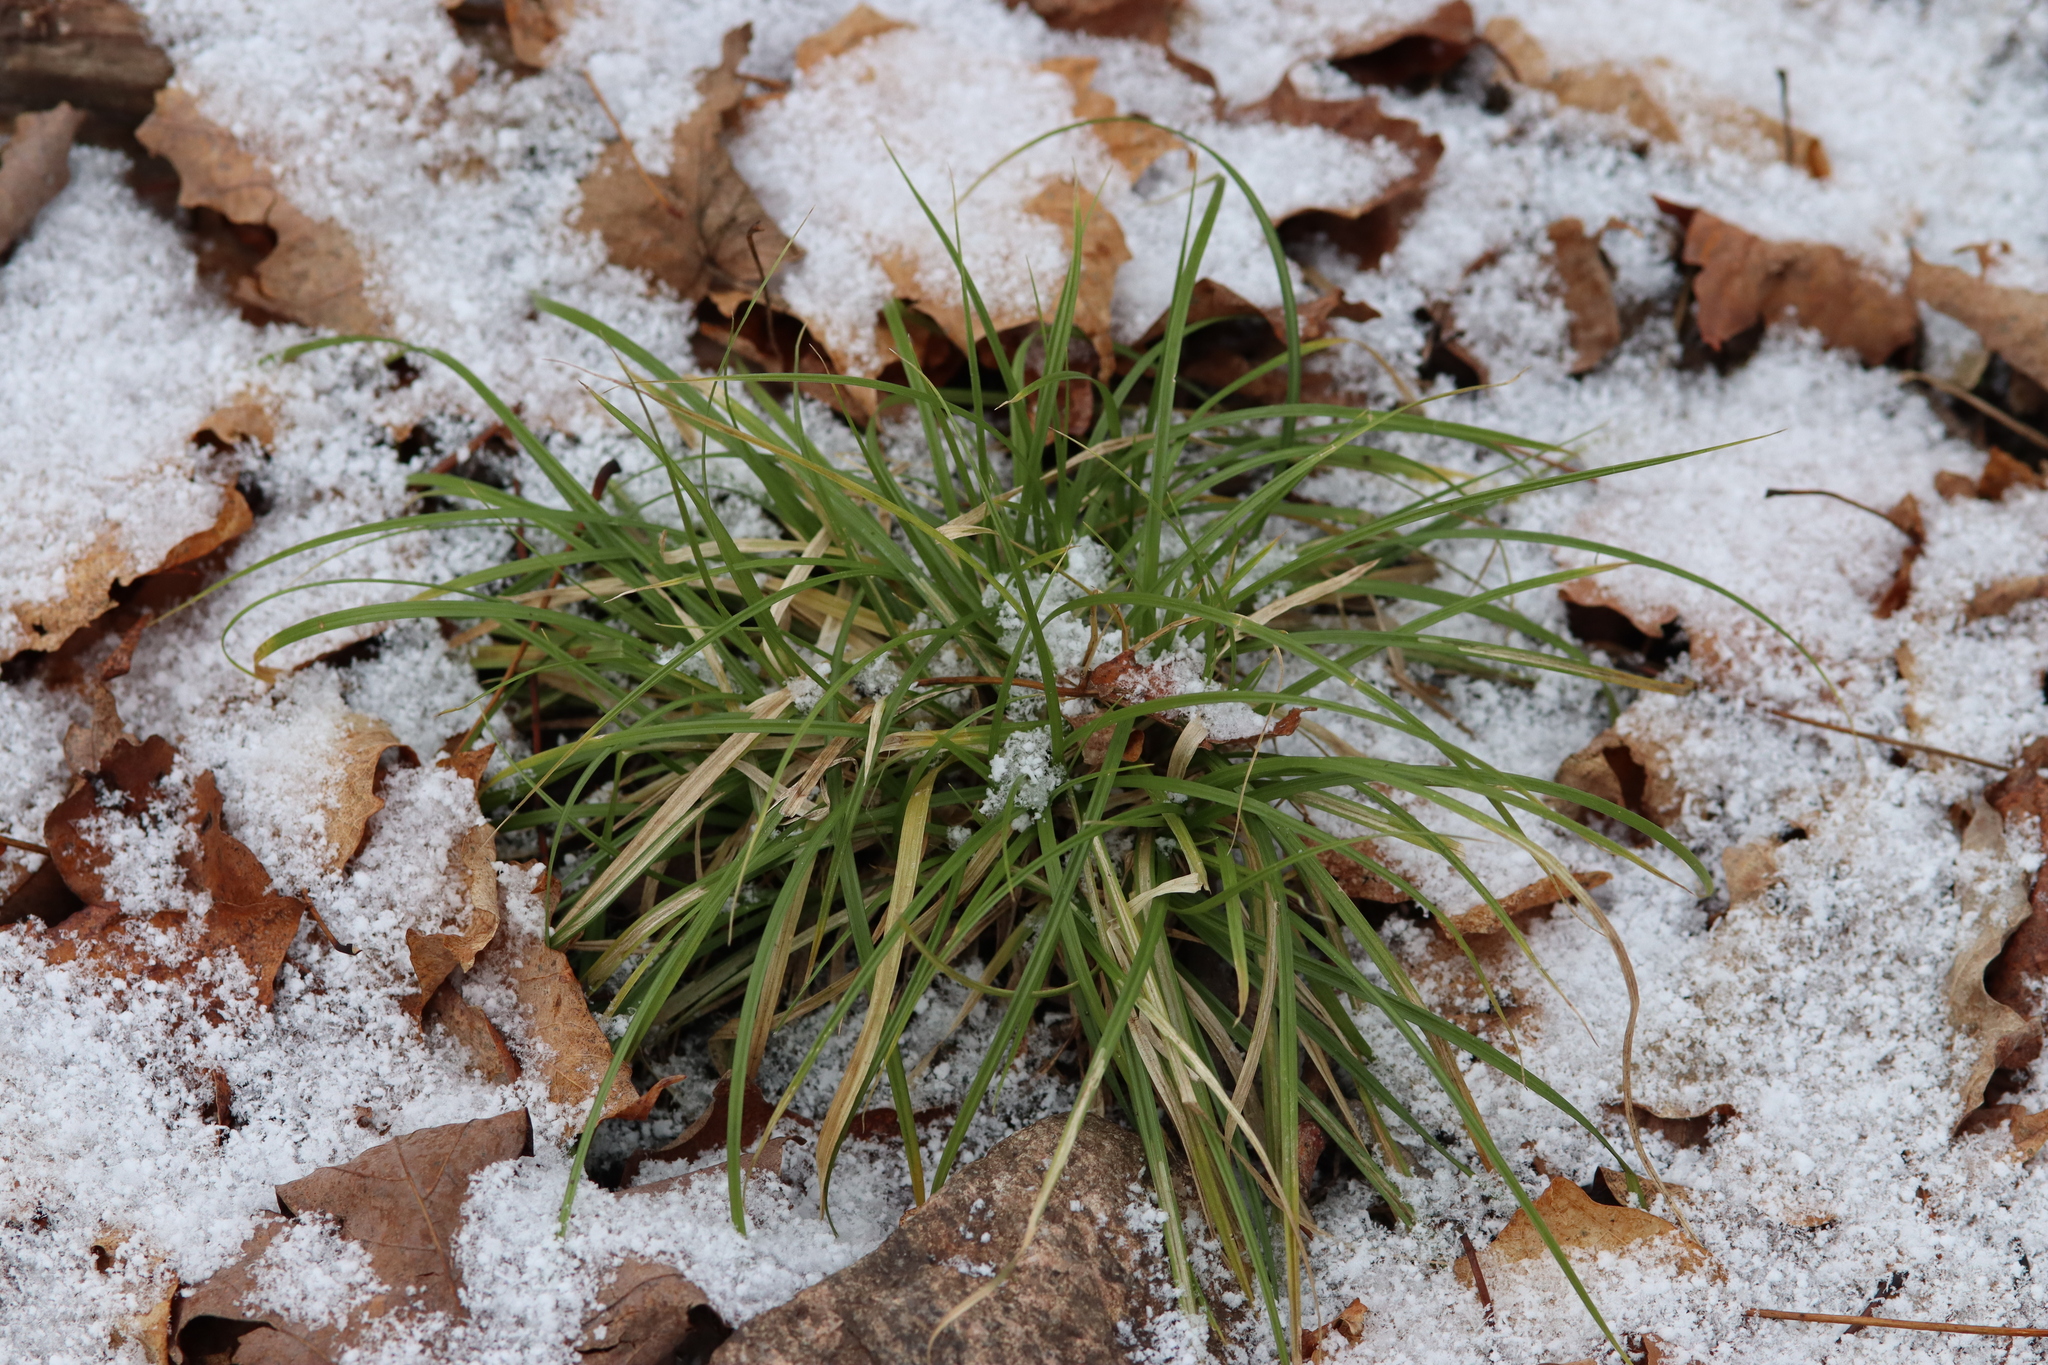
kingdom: Plantae
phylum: Tracheophyta
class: Liliopsida
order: Poales
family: Cyperaceae
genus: Carex
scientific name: Carex
